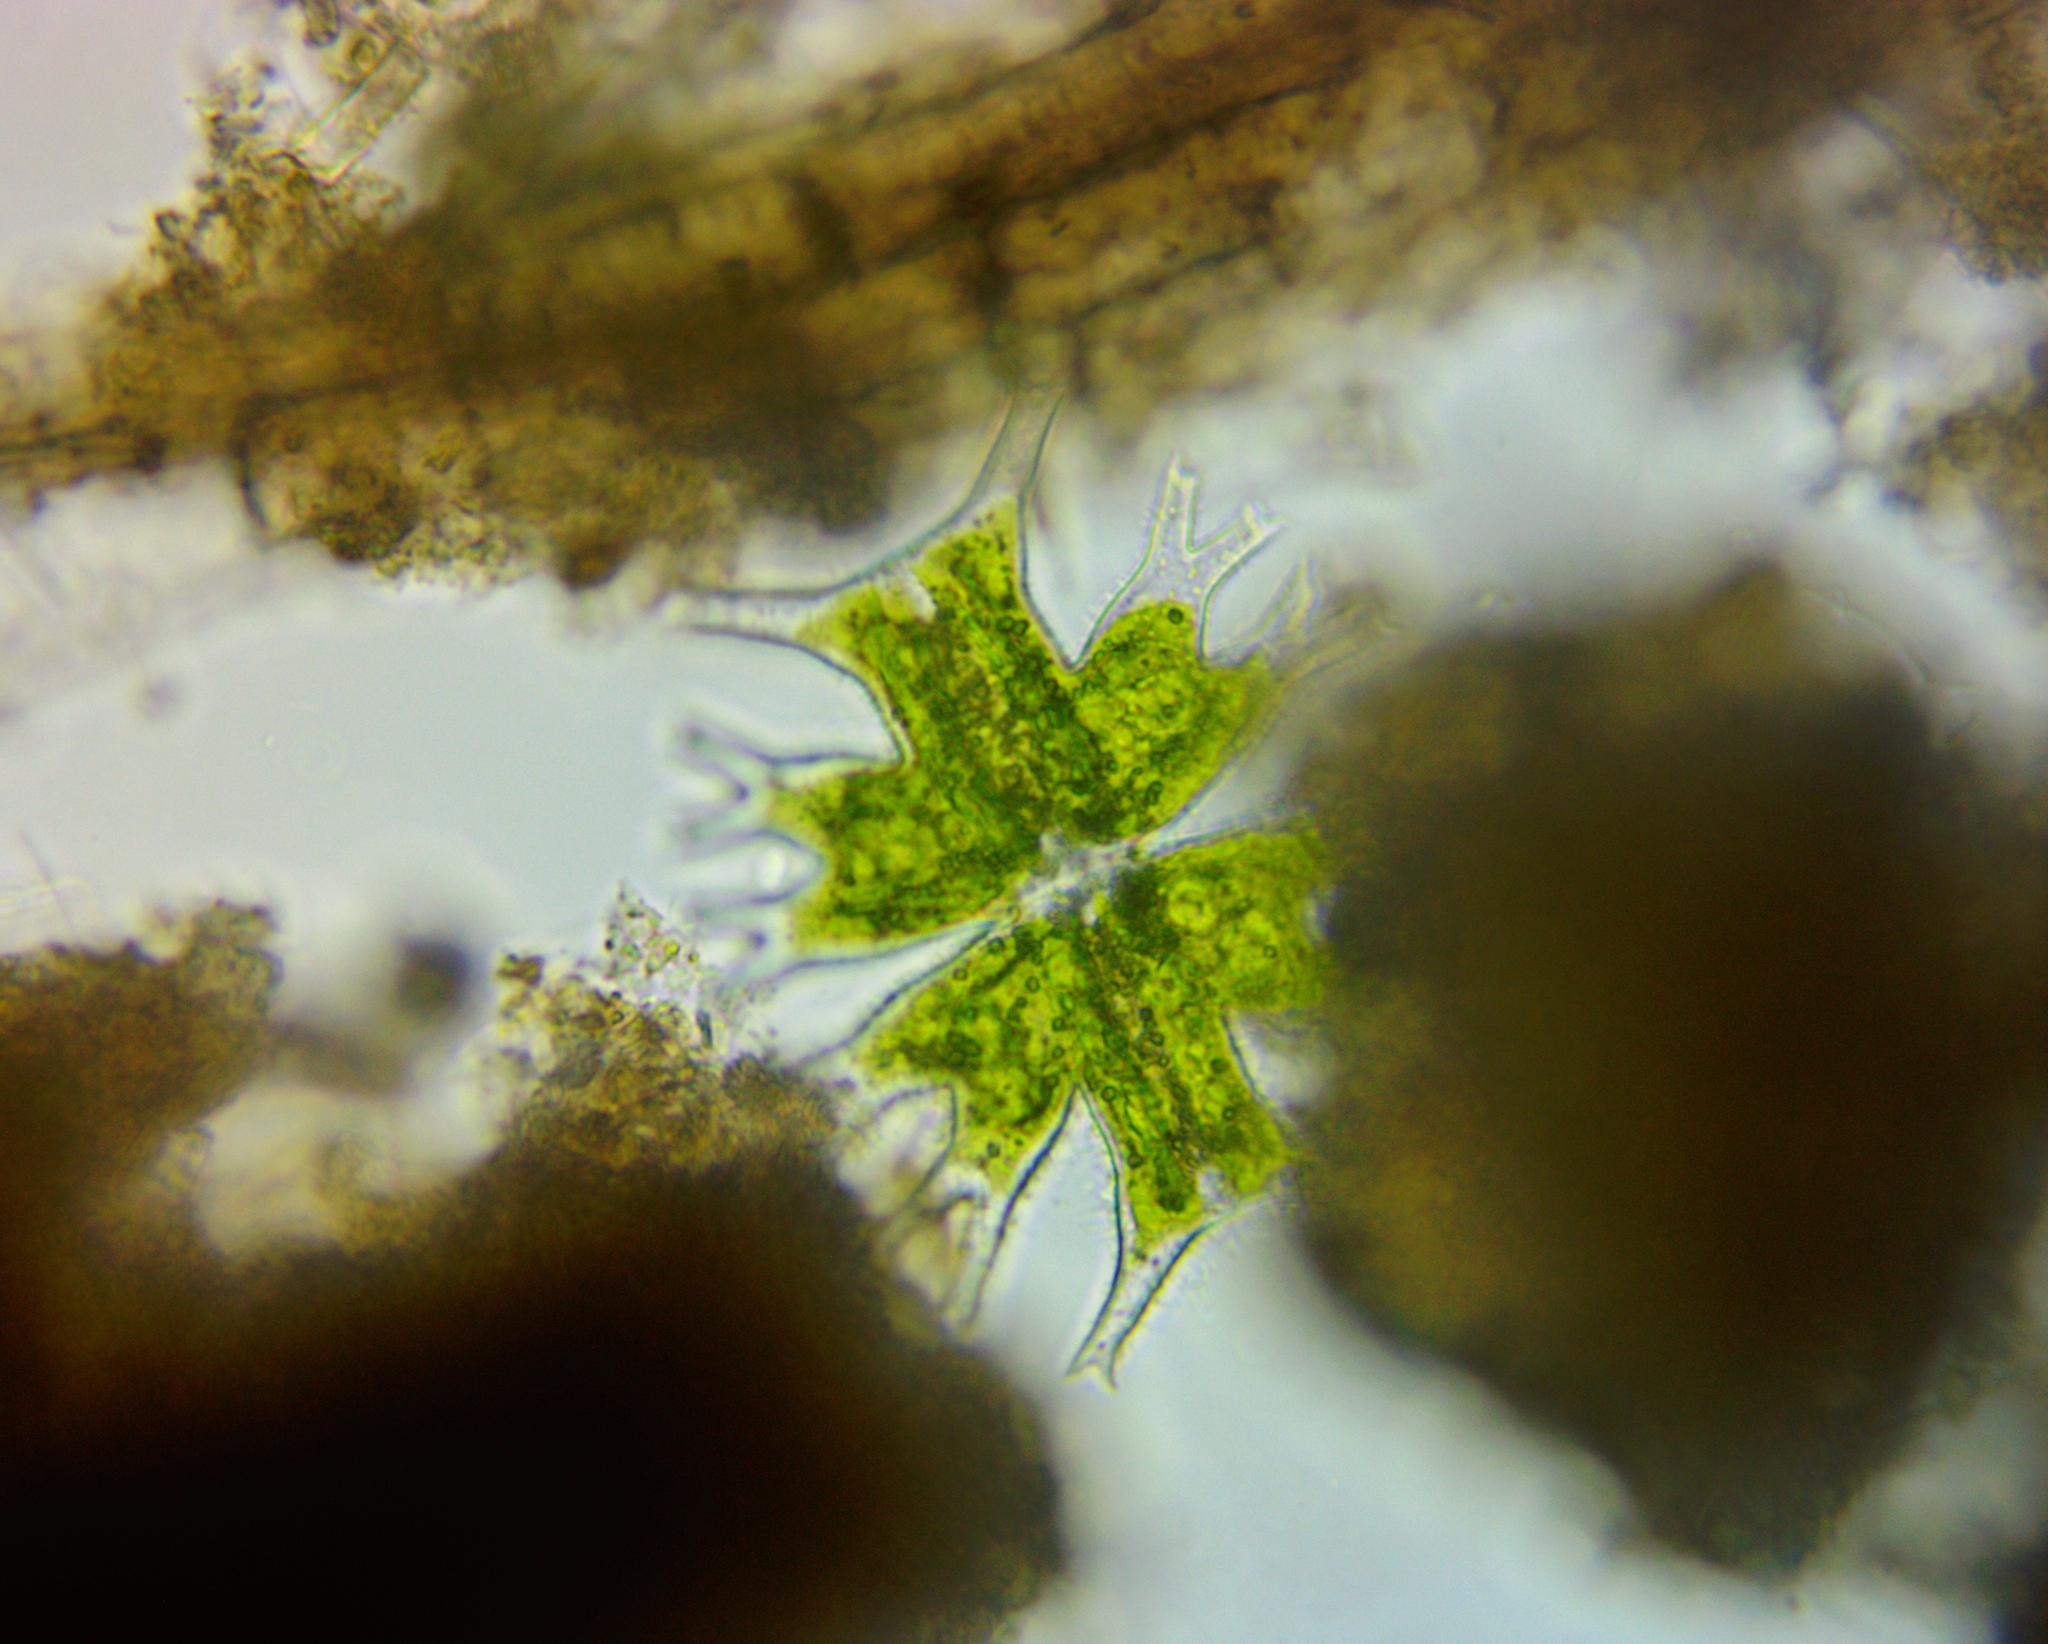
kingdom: Plantae
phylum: Charophyta
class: Conjugatophyceae
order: Desmidiales
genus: Micrasterias
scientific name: Micrasterias furcata
